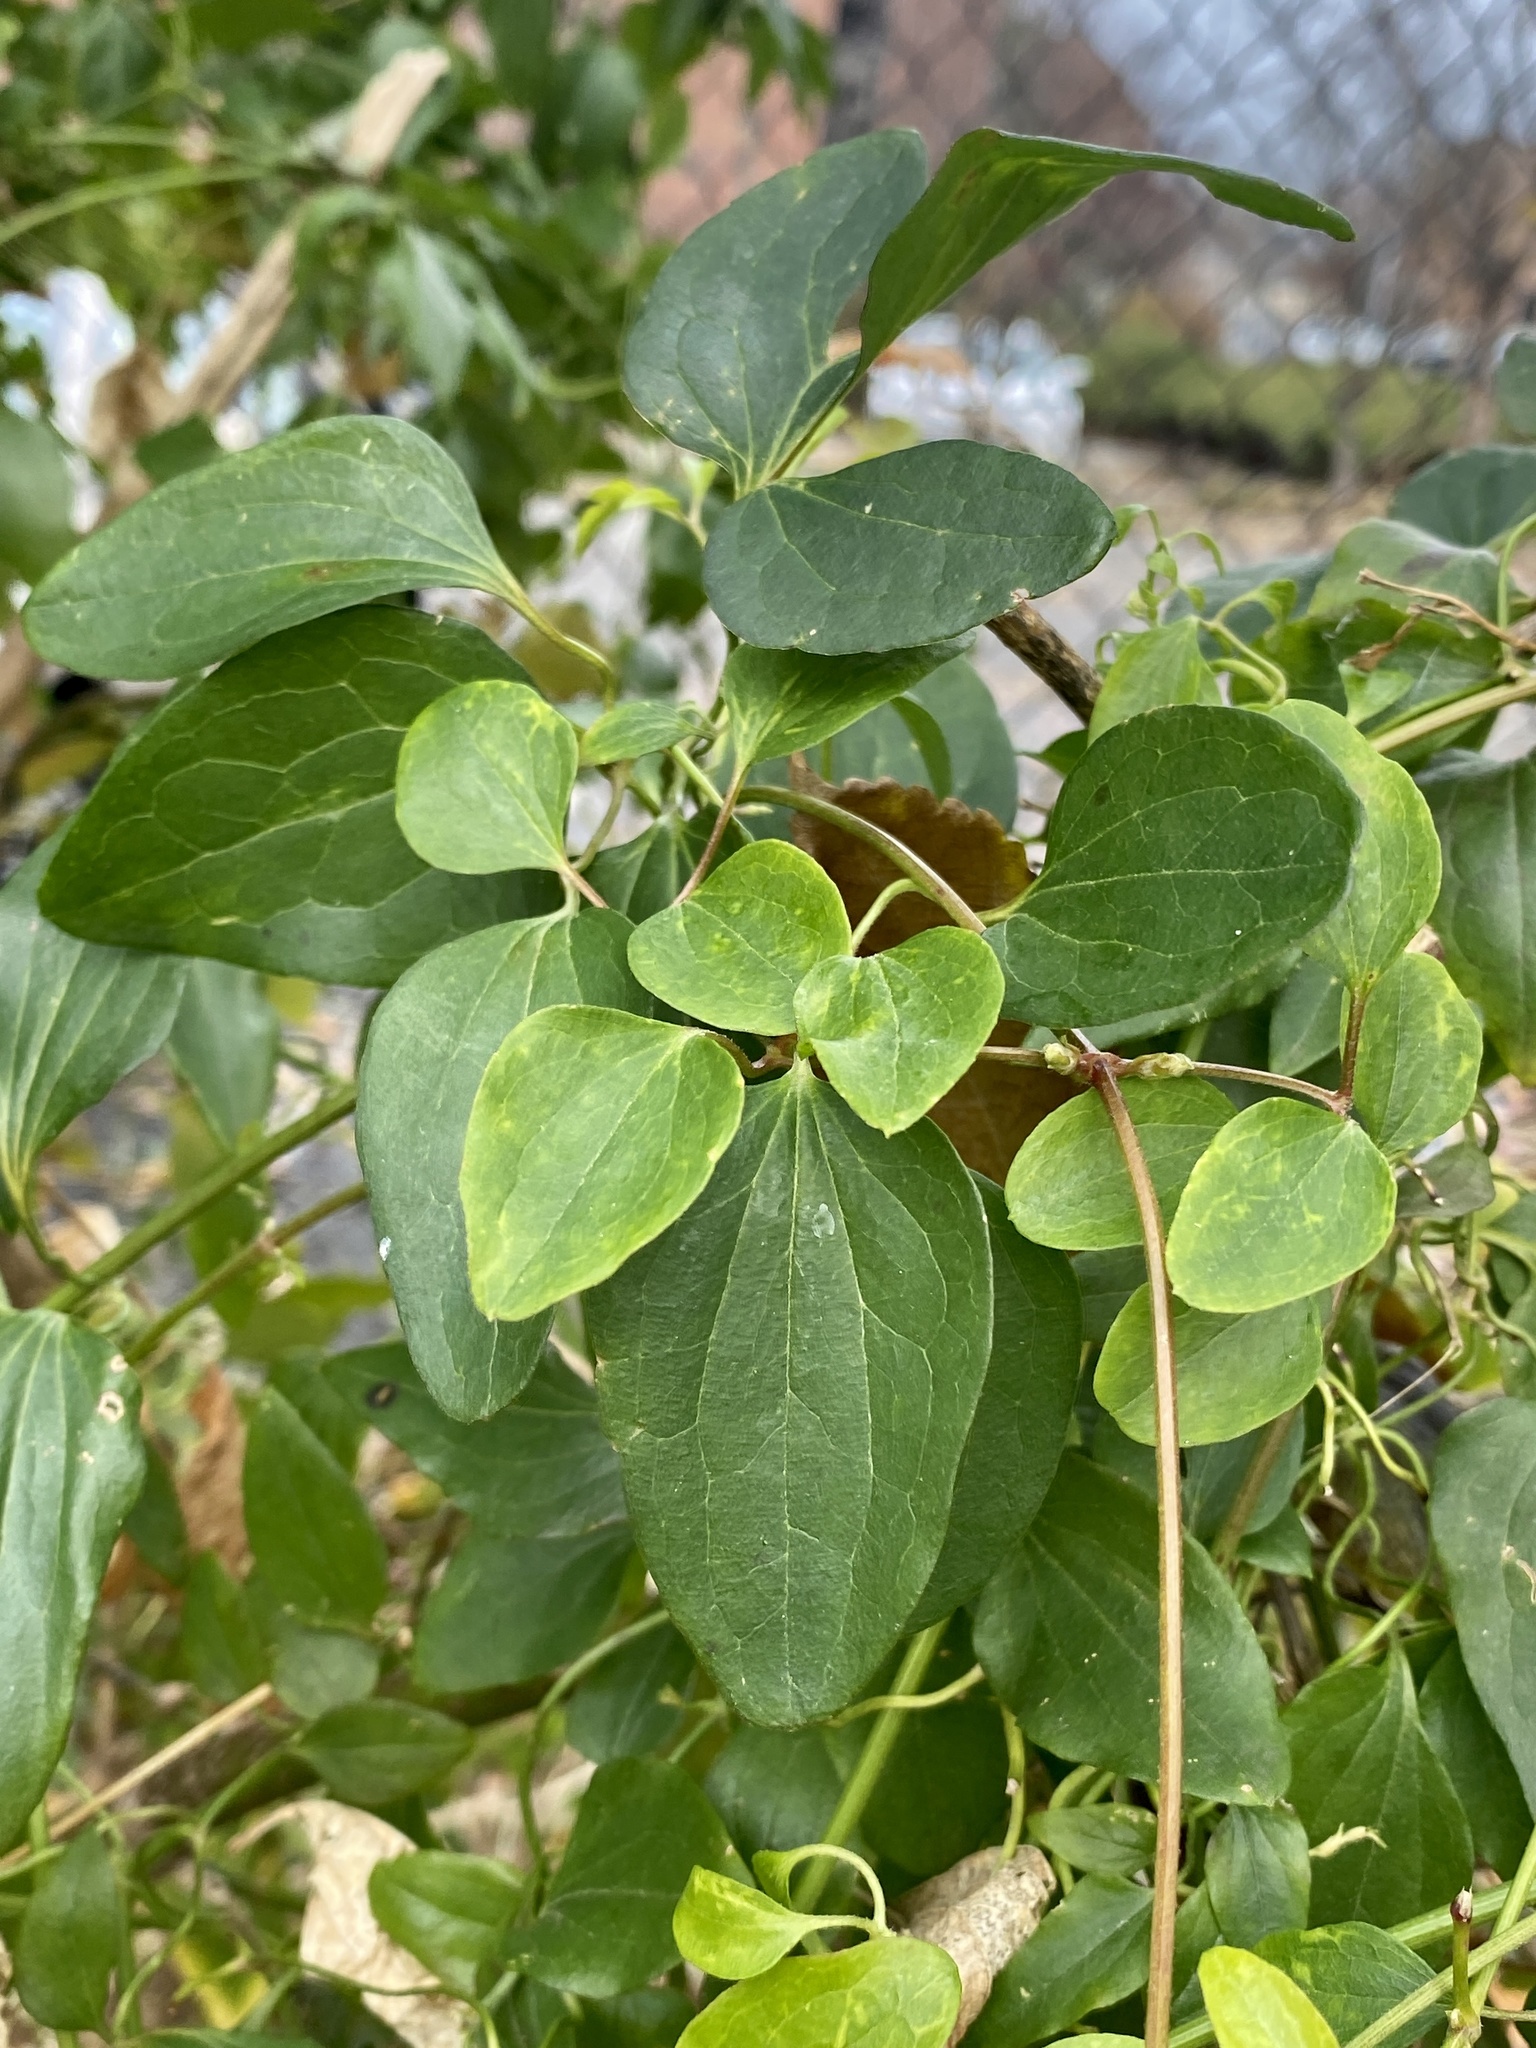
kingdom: Plantae
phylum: Tracheophyta
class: Magnoliopsida
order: Ranunculales
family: Ranunculaceae
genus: Clematis
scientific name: Clematis terniflora
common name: Sweet autumn clematis
